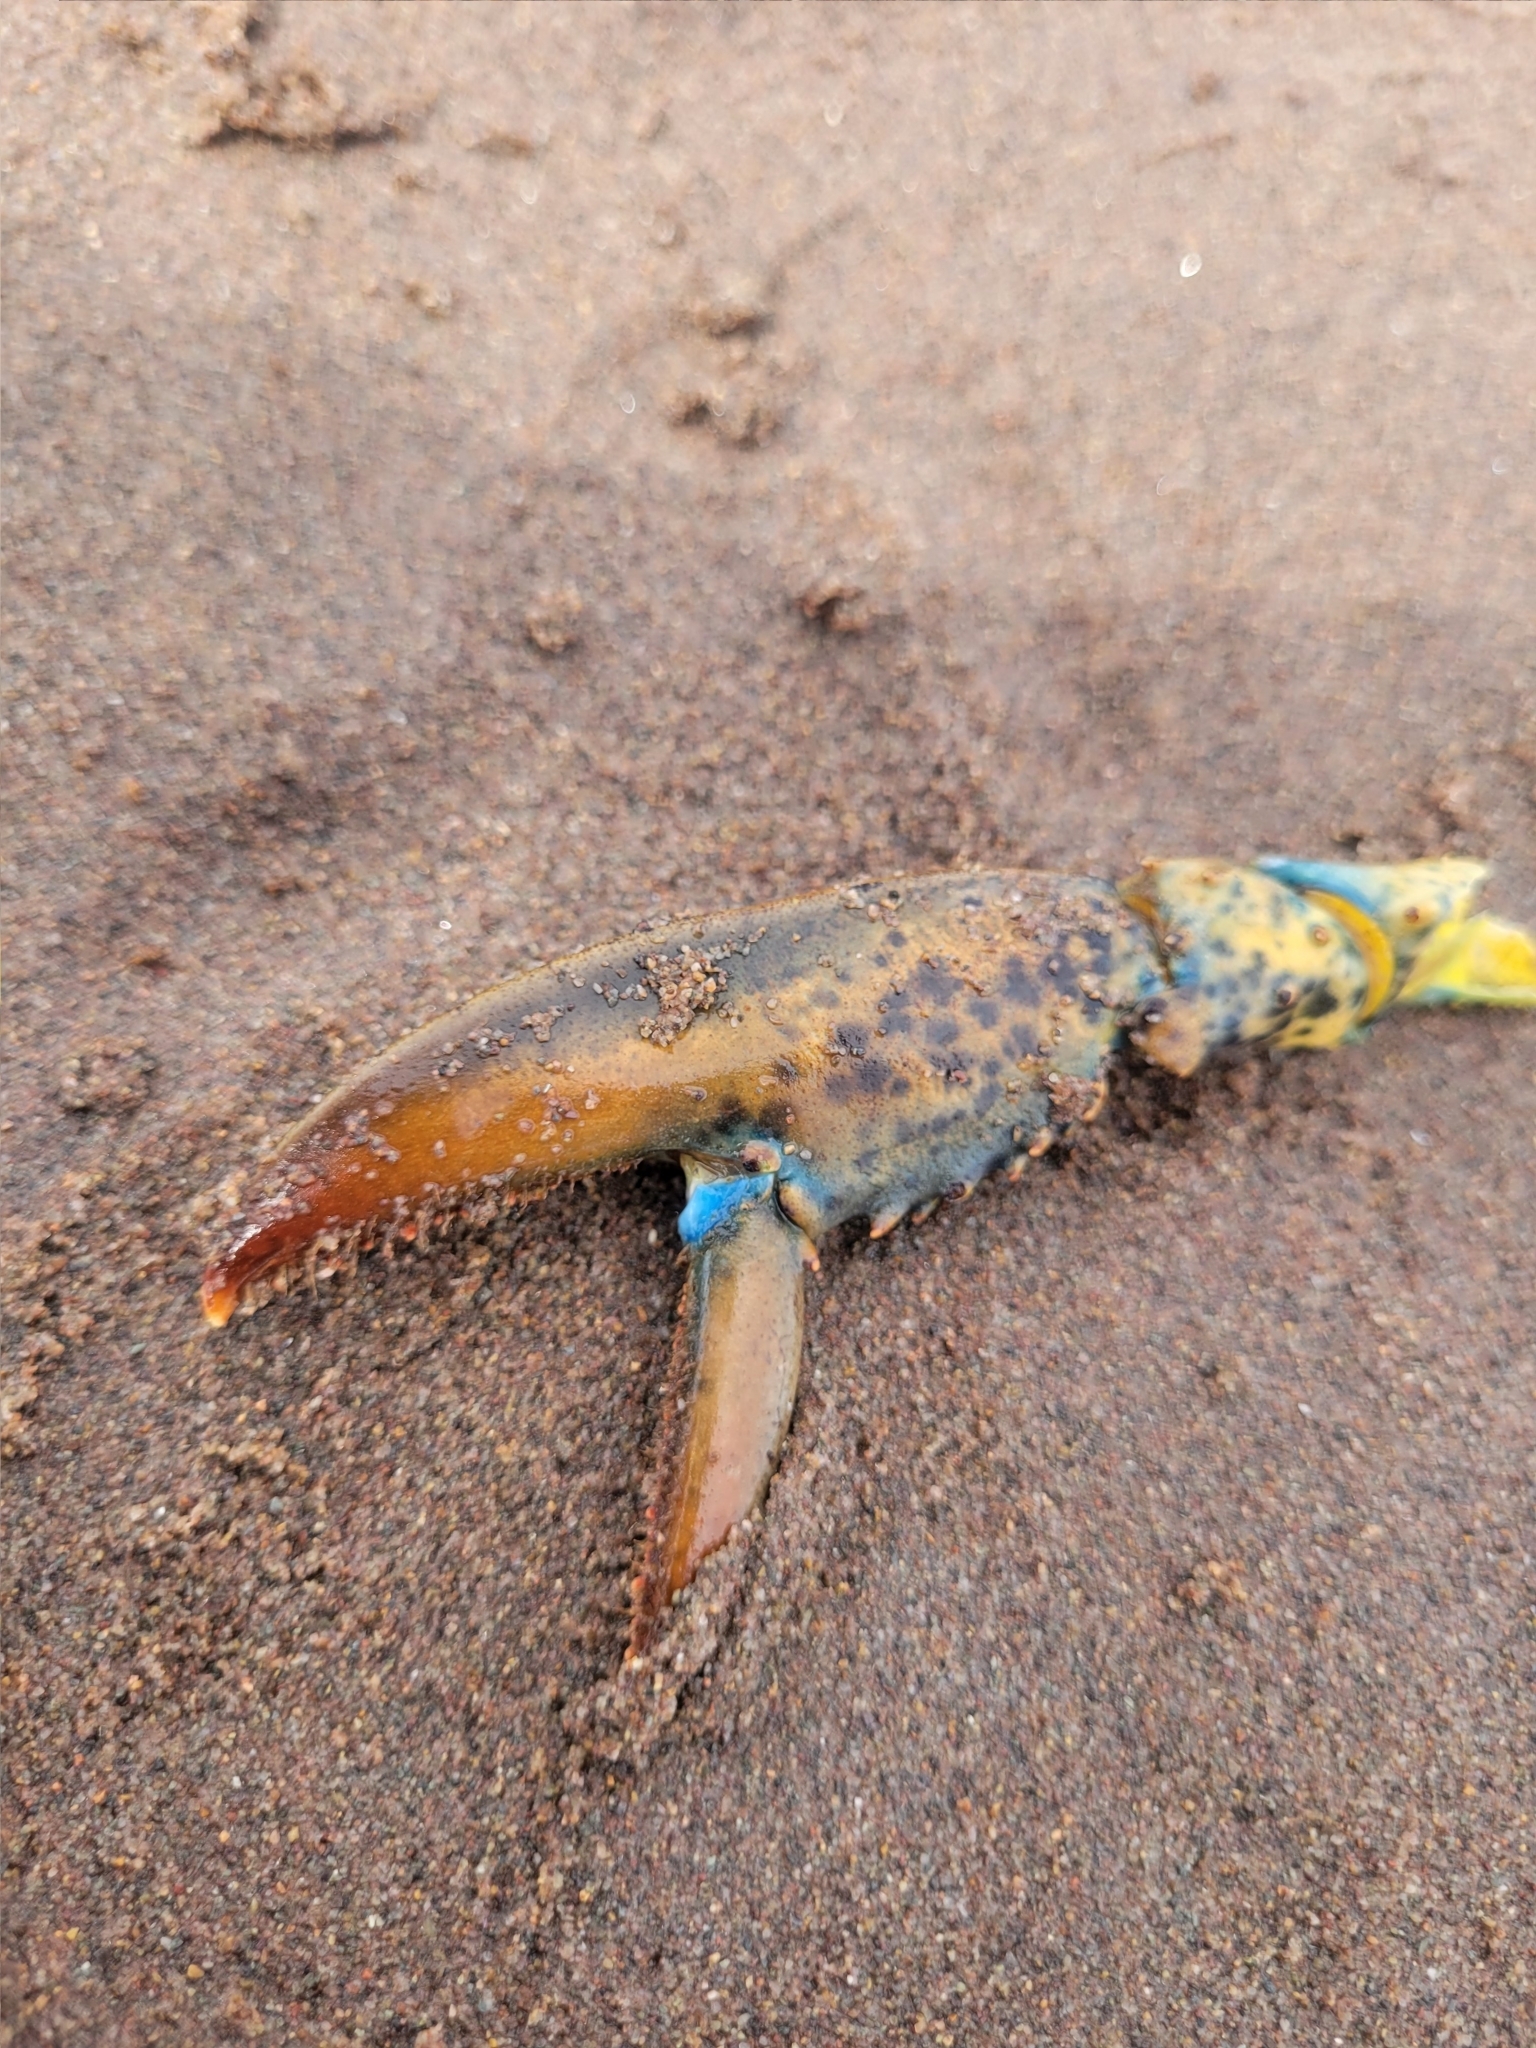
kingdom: Animalia
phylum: Arthropoda
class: Malacostraca
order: Decapoda
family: Nephropidae
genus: Homarus
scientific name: Homarus americanus
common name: American lobster
